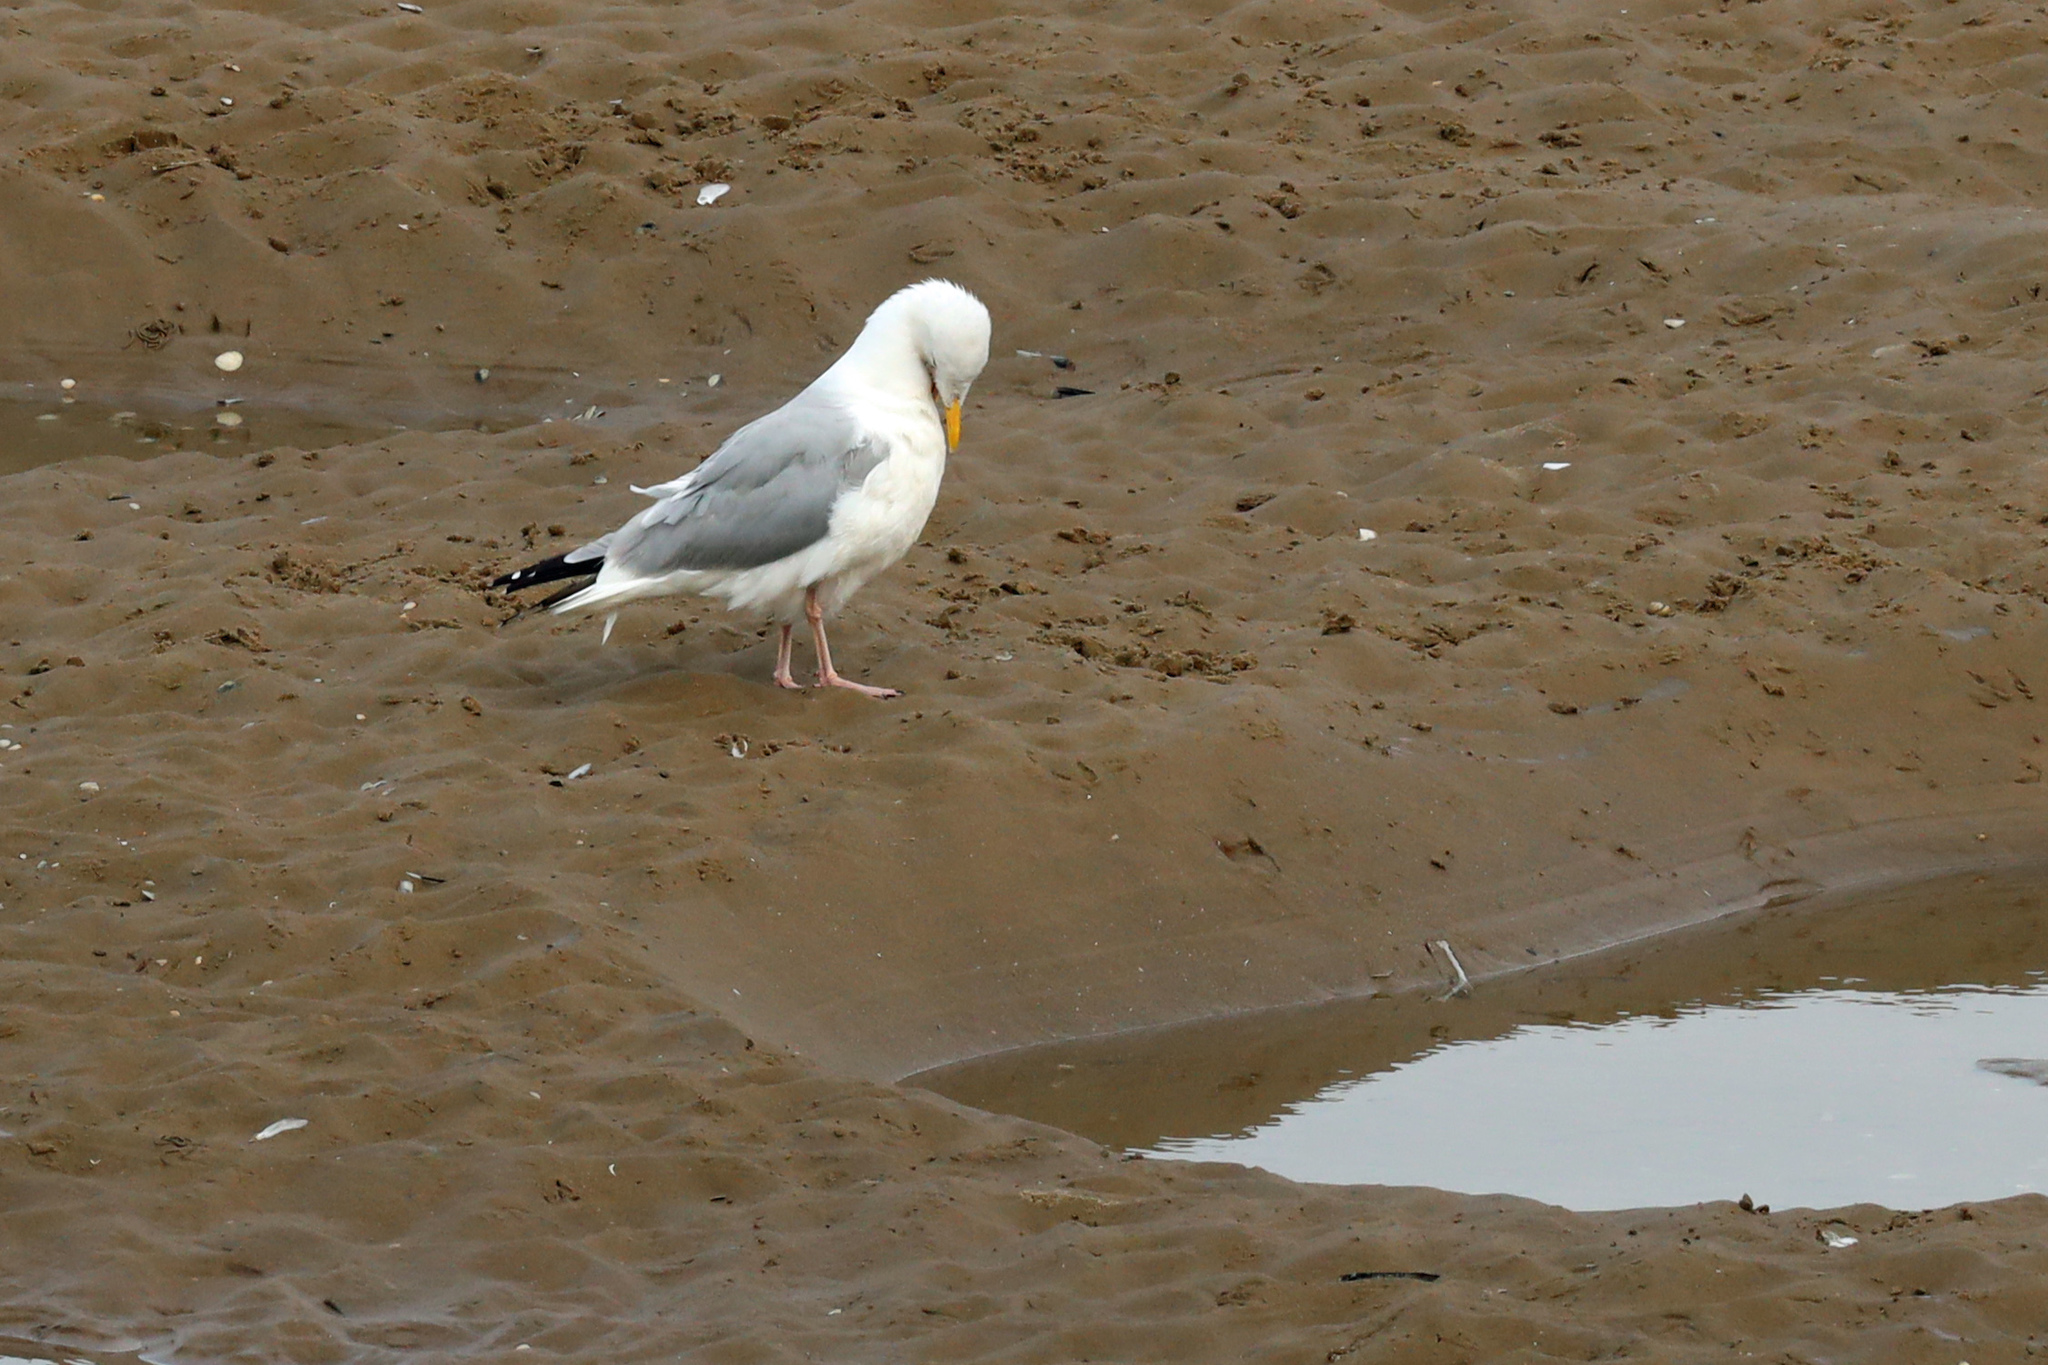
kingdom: Animalia
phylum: Chordata
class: Aves
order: Charadriiformes
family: Laridae
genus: Larus
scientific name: Larus argentatus
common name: Herring gull
